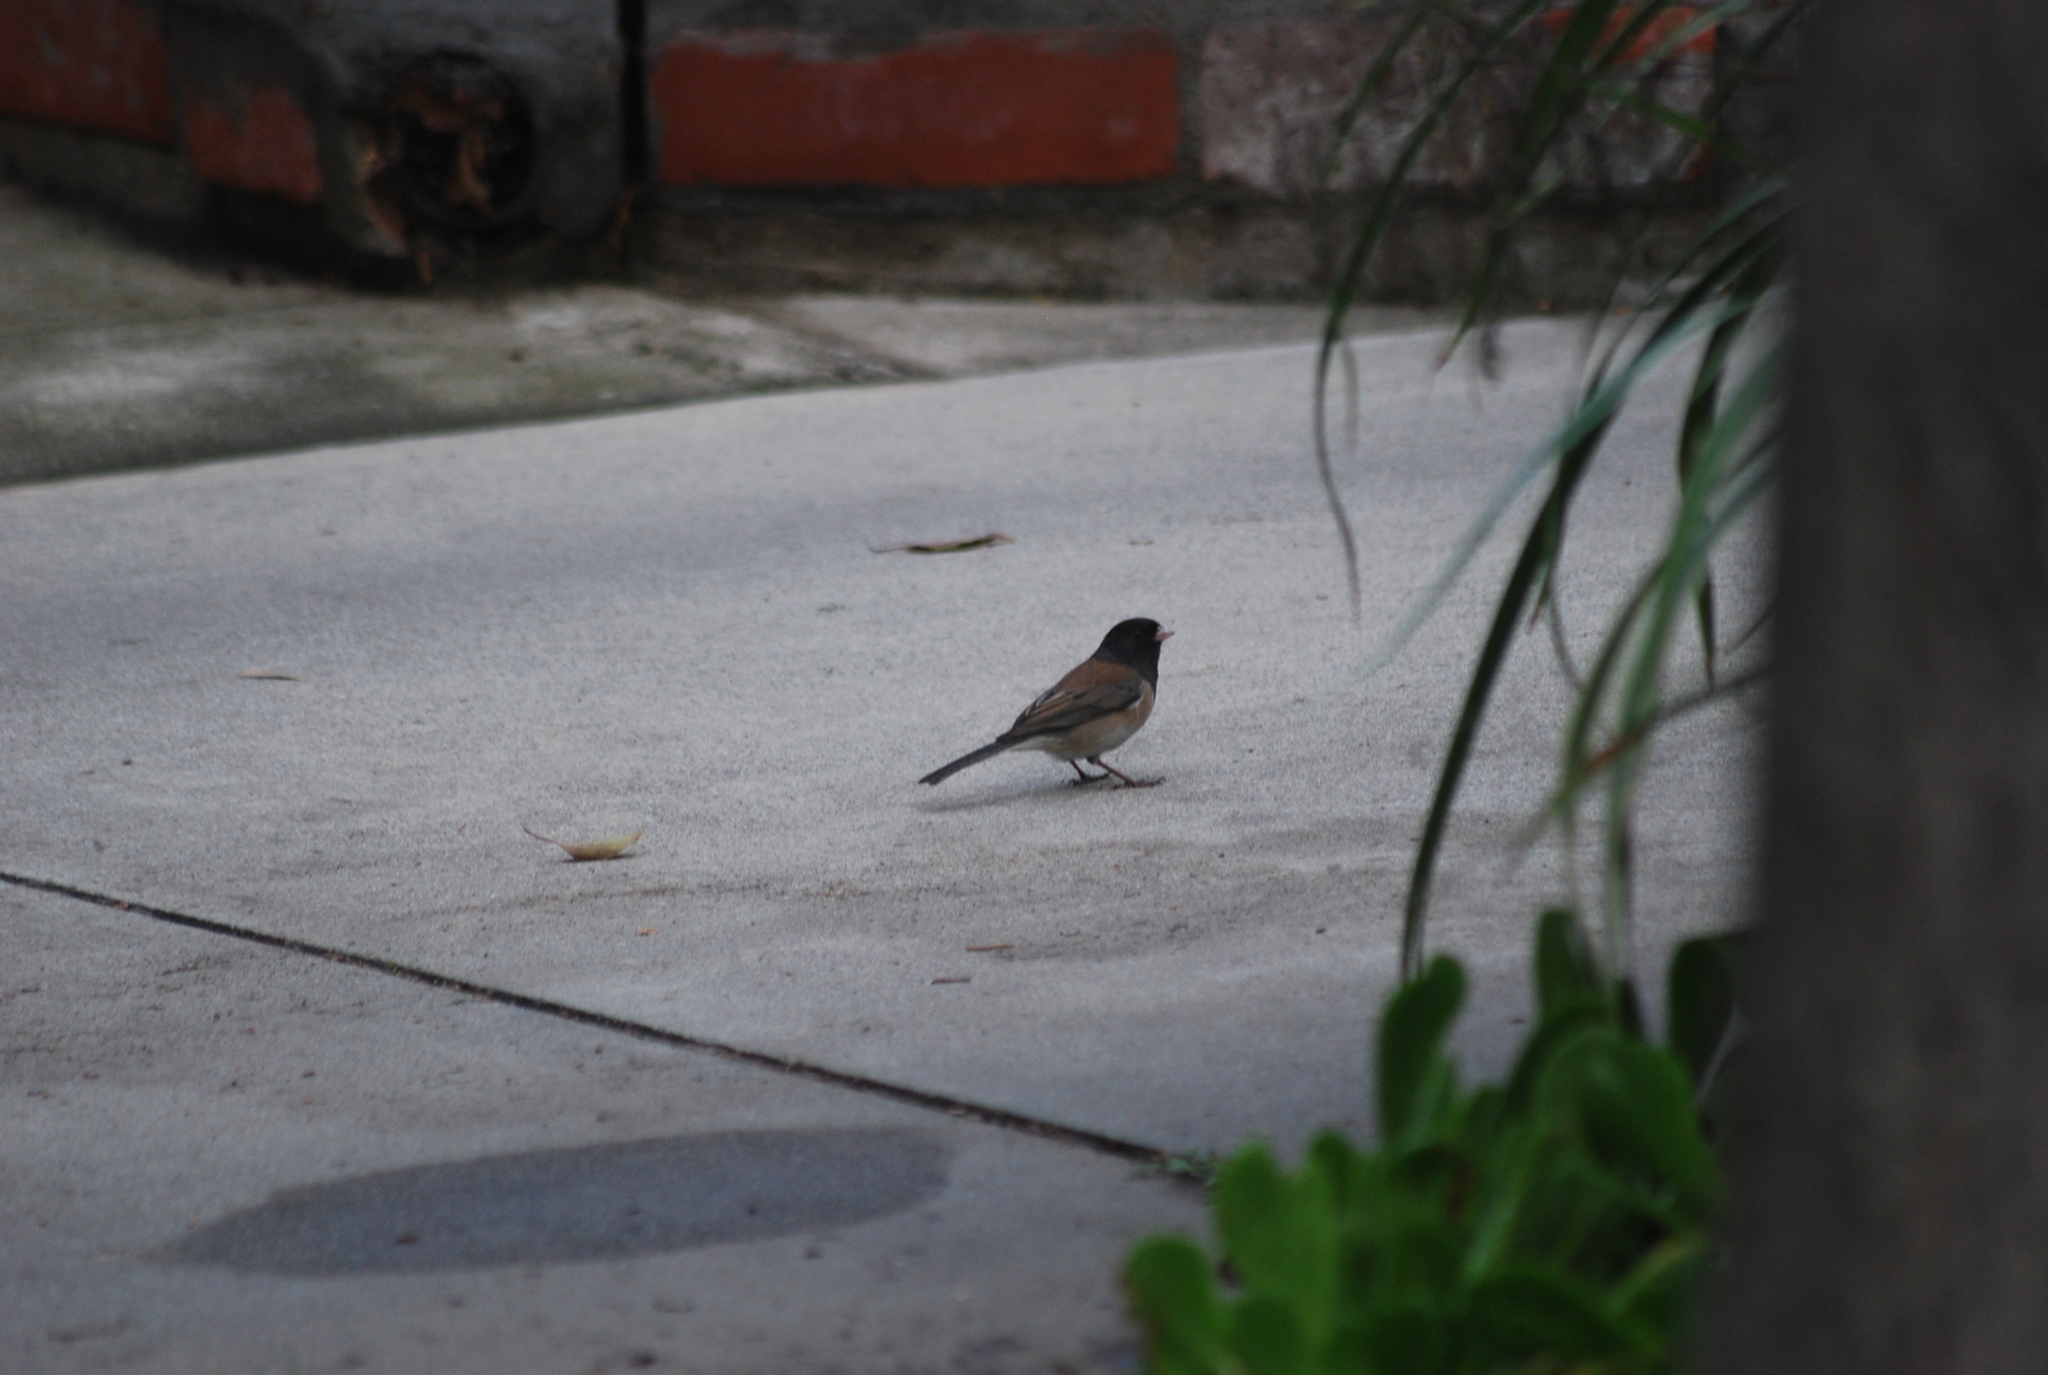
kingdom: Animalia
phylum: Chordata
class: Aves
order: Passeriformes
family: Passerellidae
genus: Junco
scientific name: Junco hyemalis
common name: Dark-eyed junco
